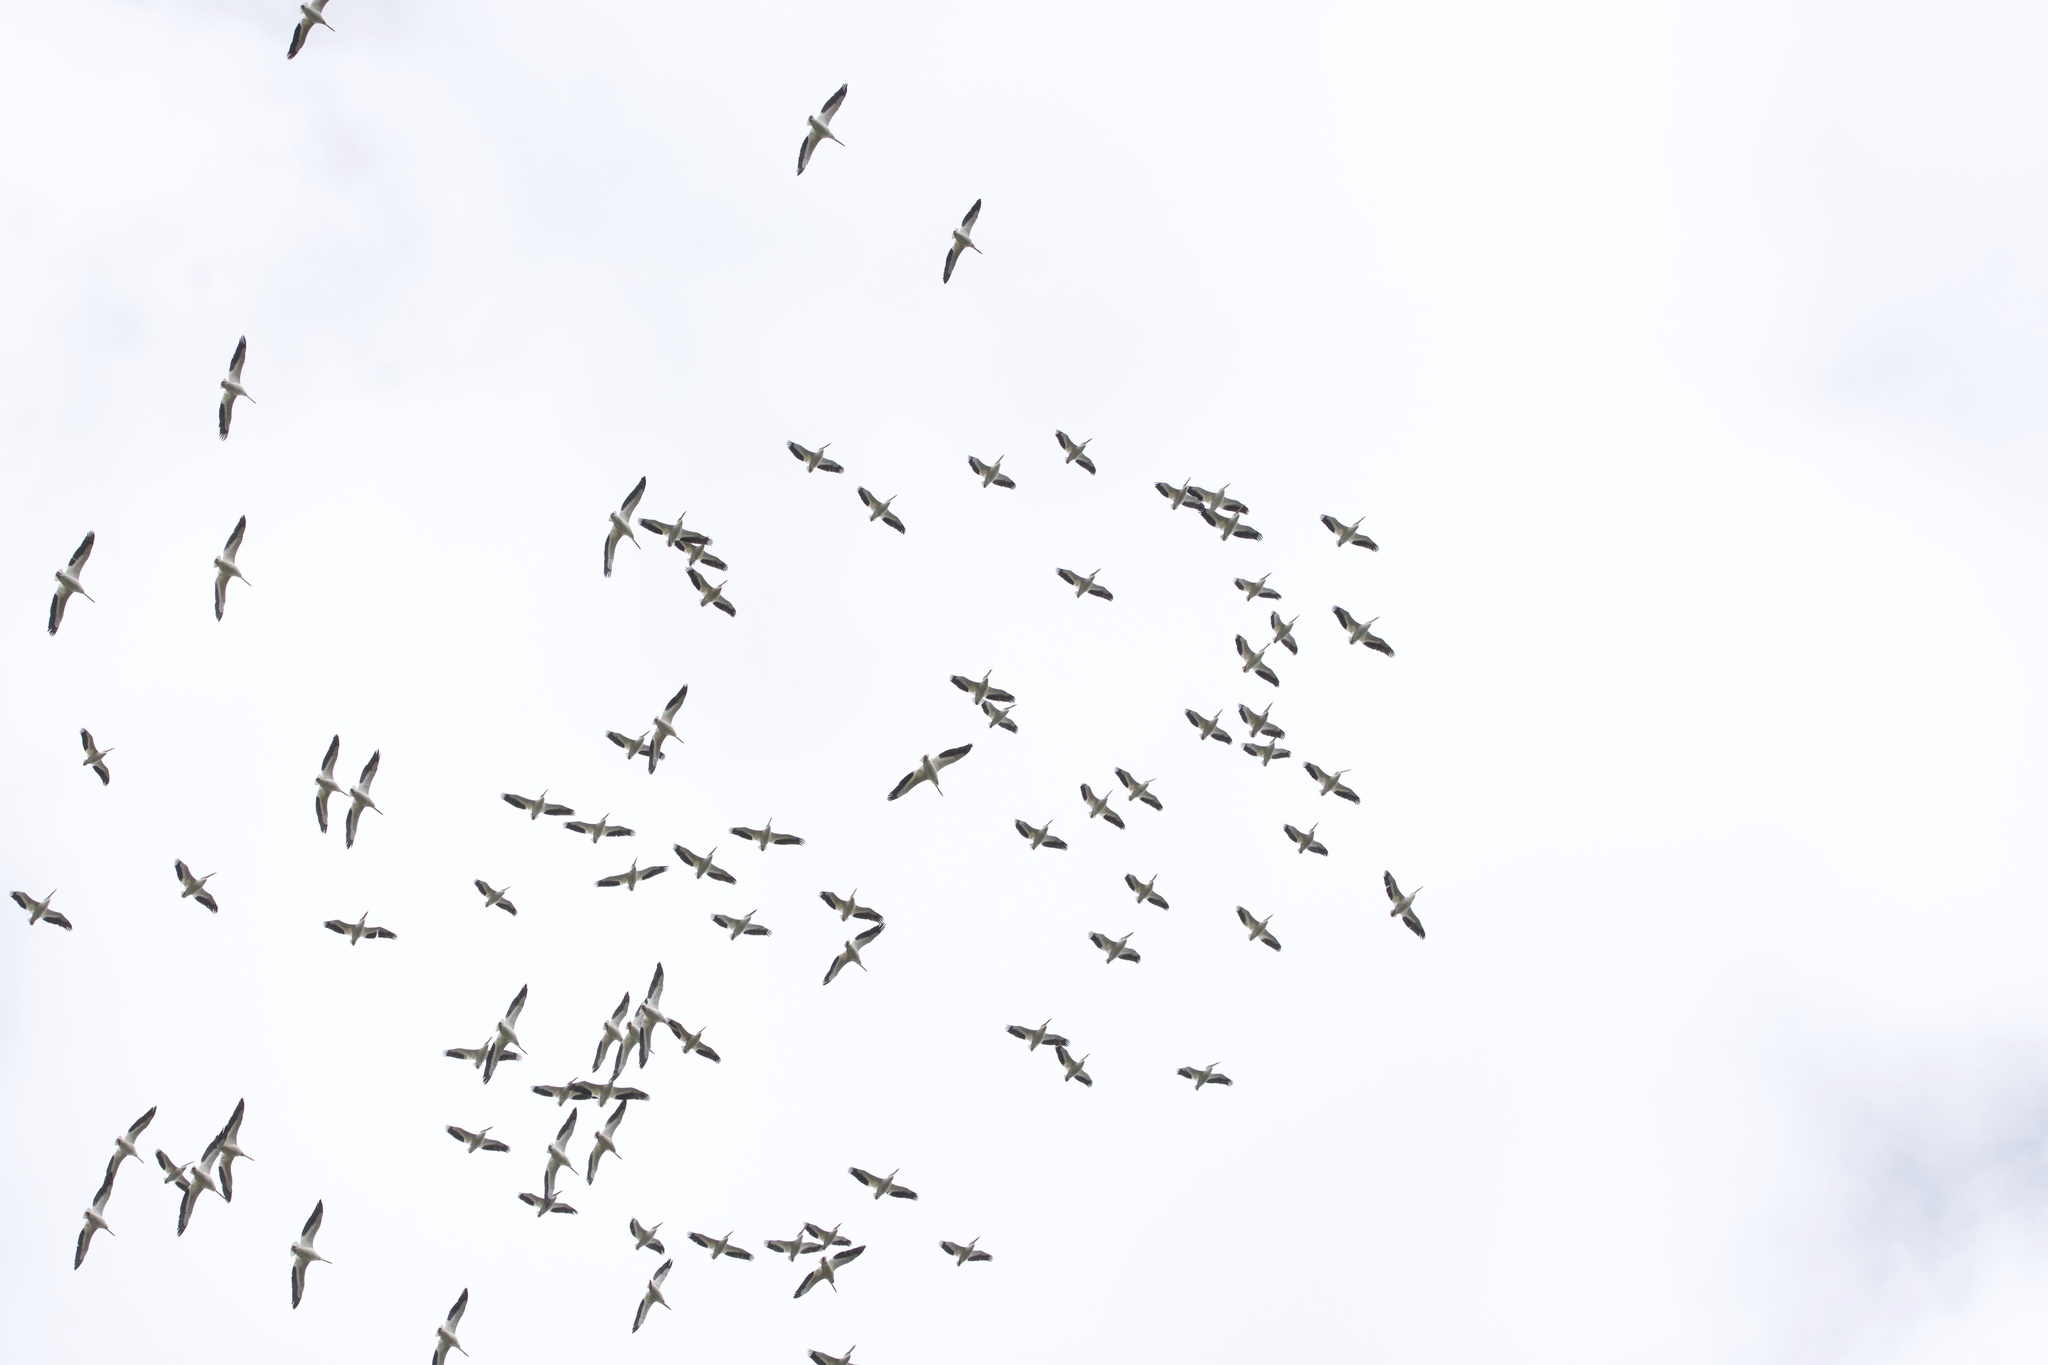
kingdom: Animalia
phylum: Chordata
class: Aves
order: Pelecaniformes
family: Pelecanidae
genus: Pelecanus
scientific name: Pelecanus erythrorhynchos
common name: American white pelican
